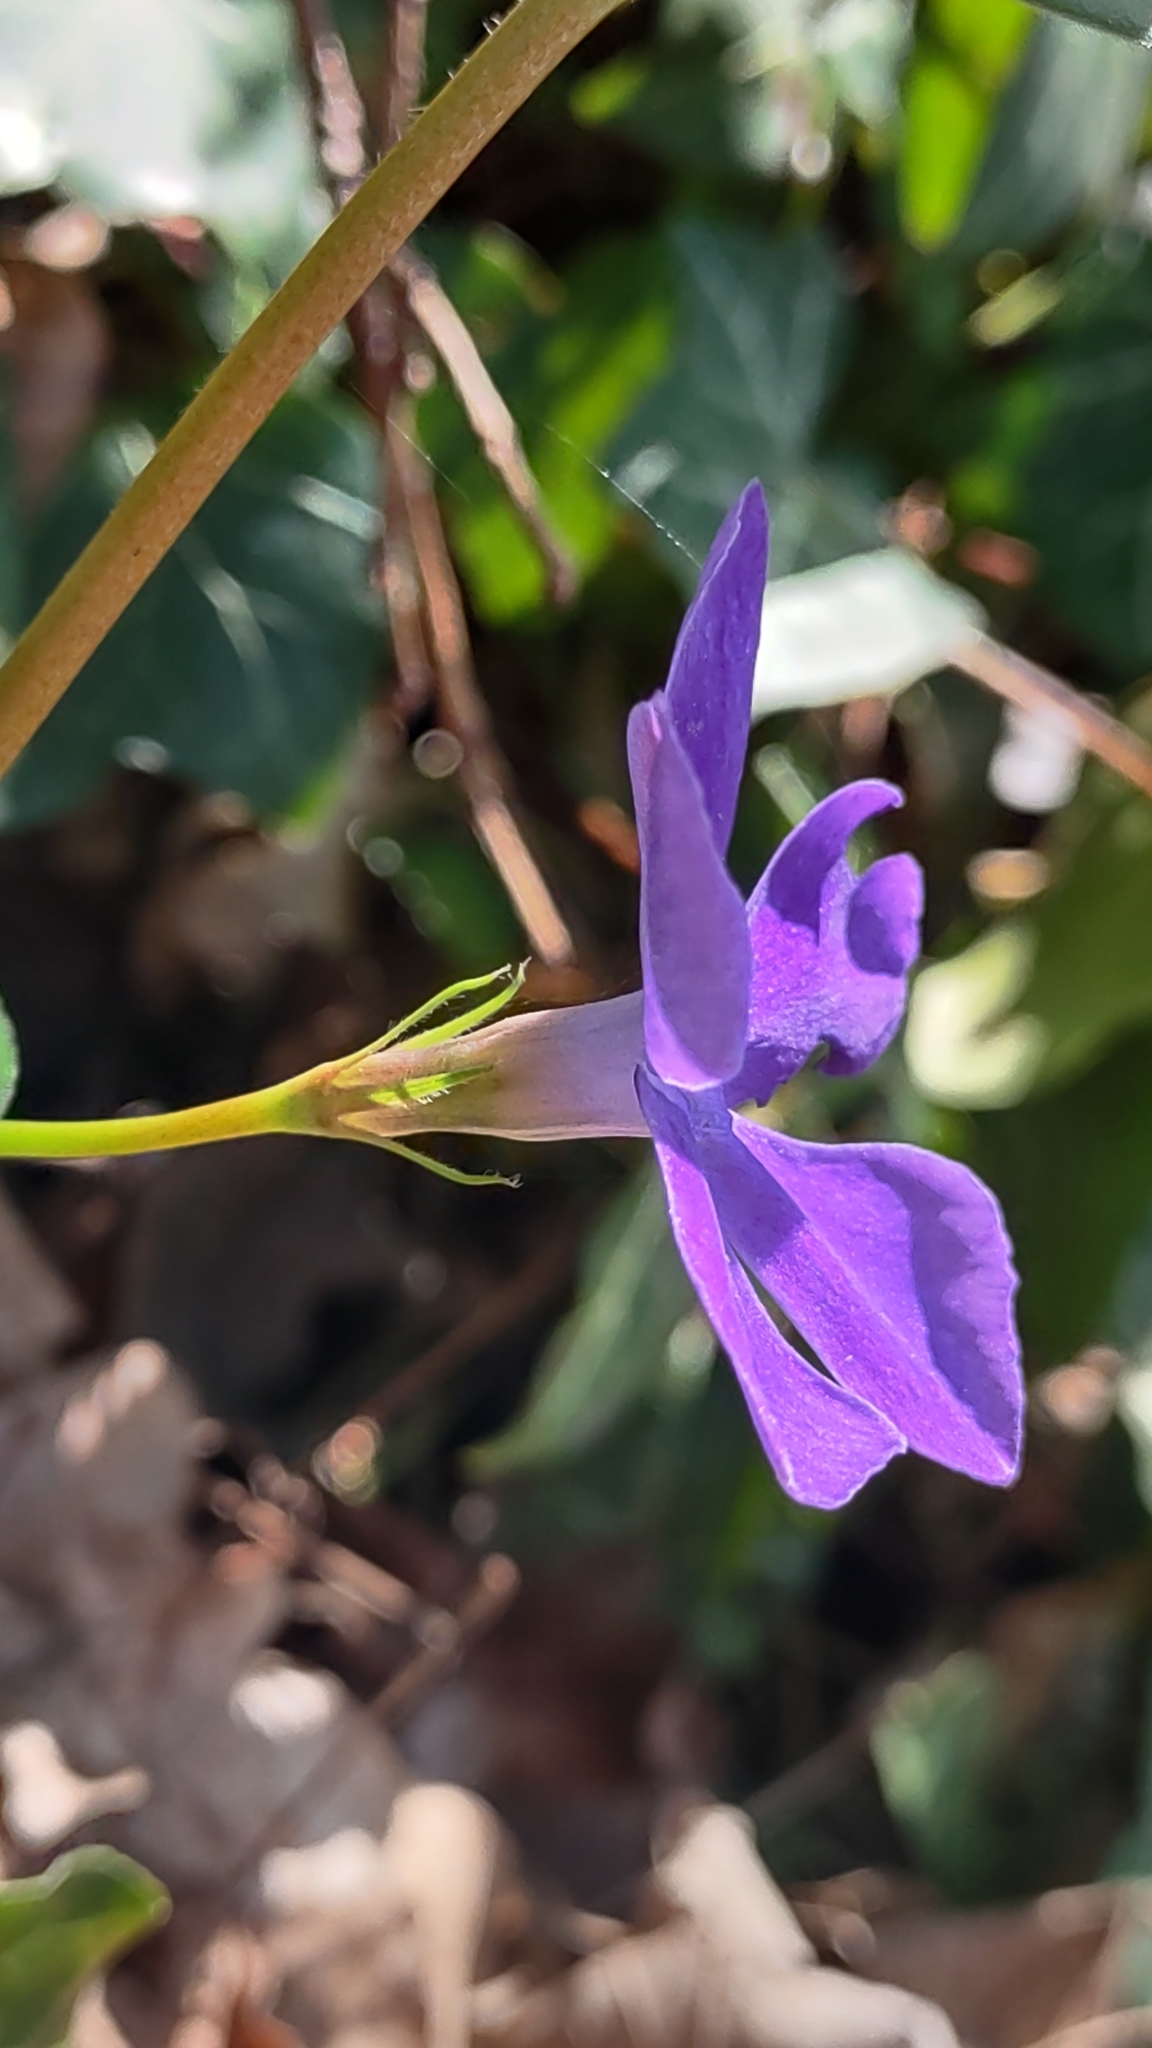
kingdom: Plantae
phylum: Tracheophyta
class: Magnoliopsida
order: Gentianales
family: Apocynaceae
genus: Vinca
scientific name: Vinca major
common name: Greater periwinkle
